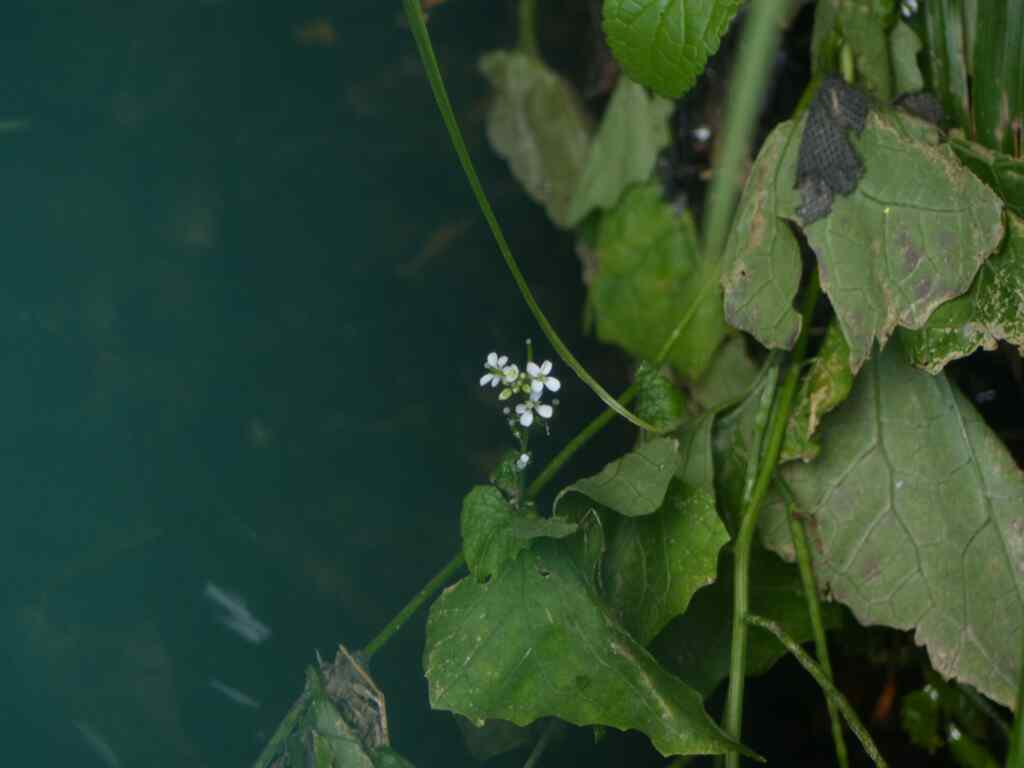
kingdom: Plantae
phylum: Tracheophyta
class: Magnoliopsida
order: Brassicales
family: Brassicaceae
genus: Alliaria
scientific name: Alliaria petiolata
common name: Garlic mustard
